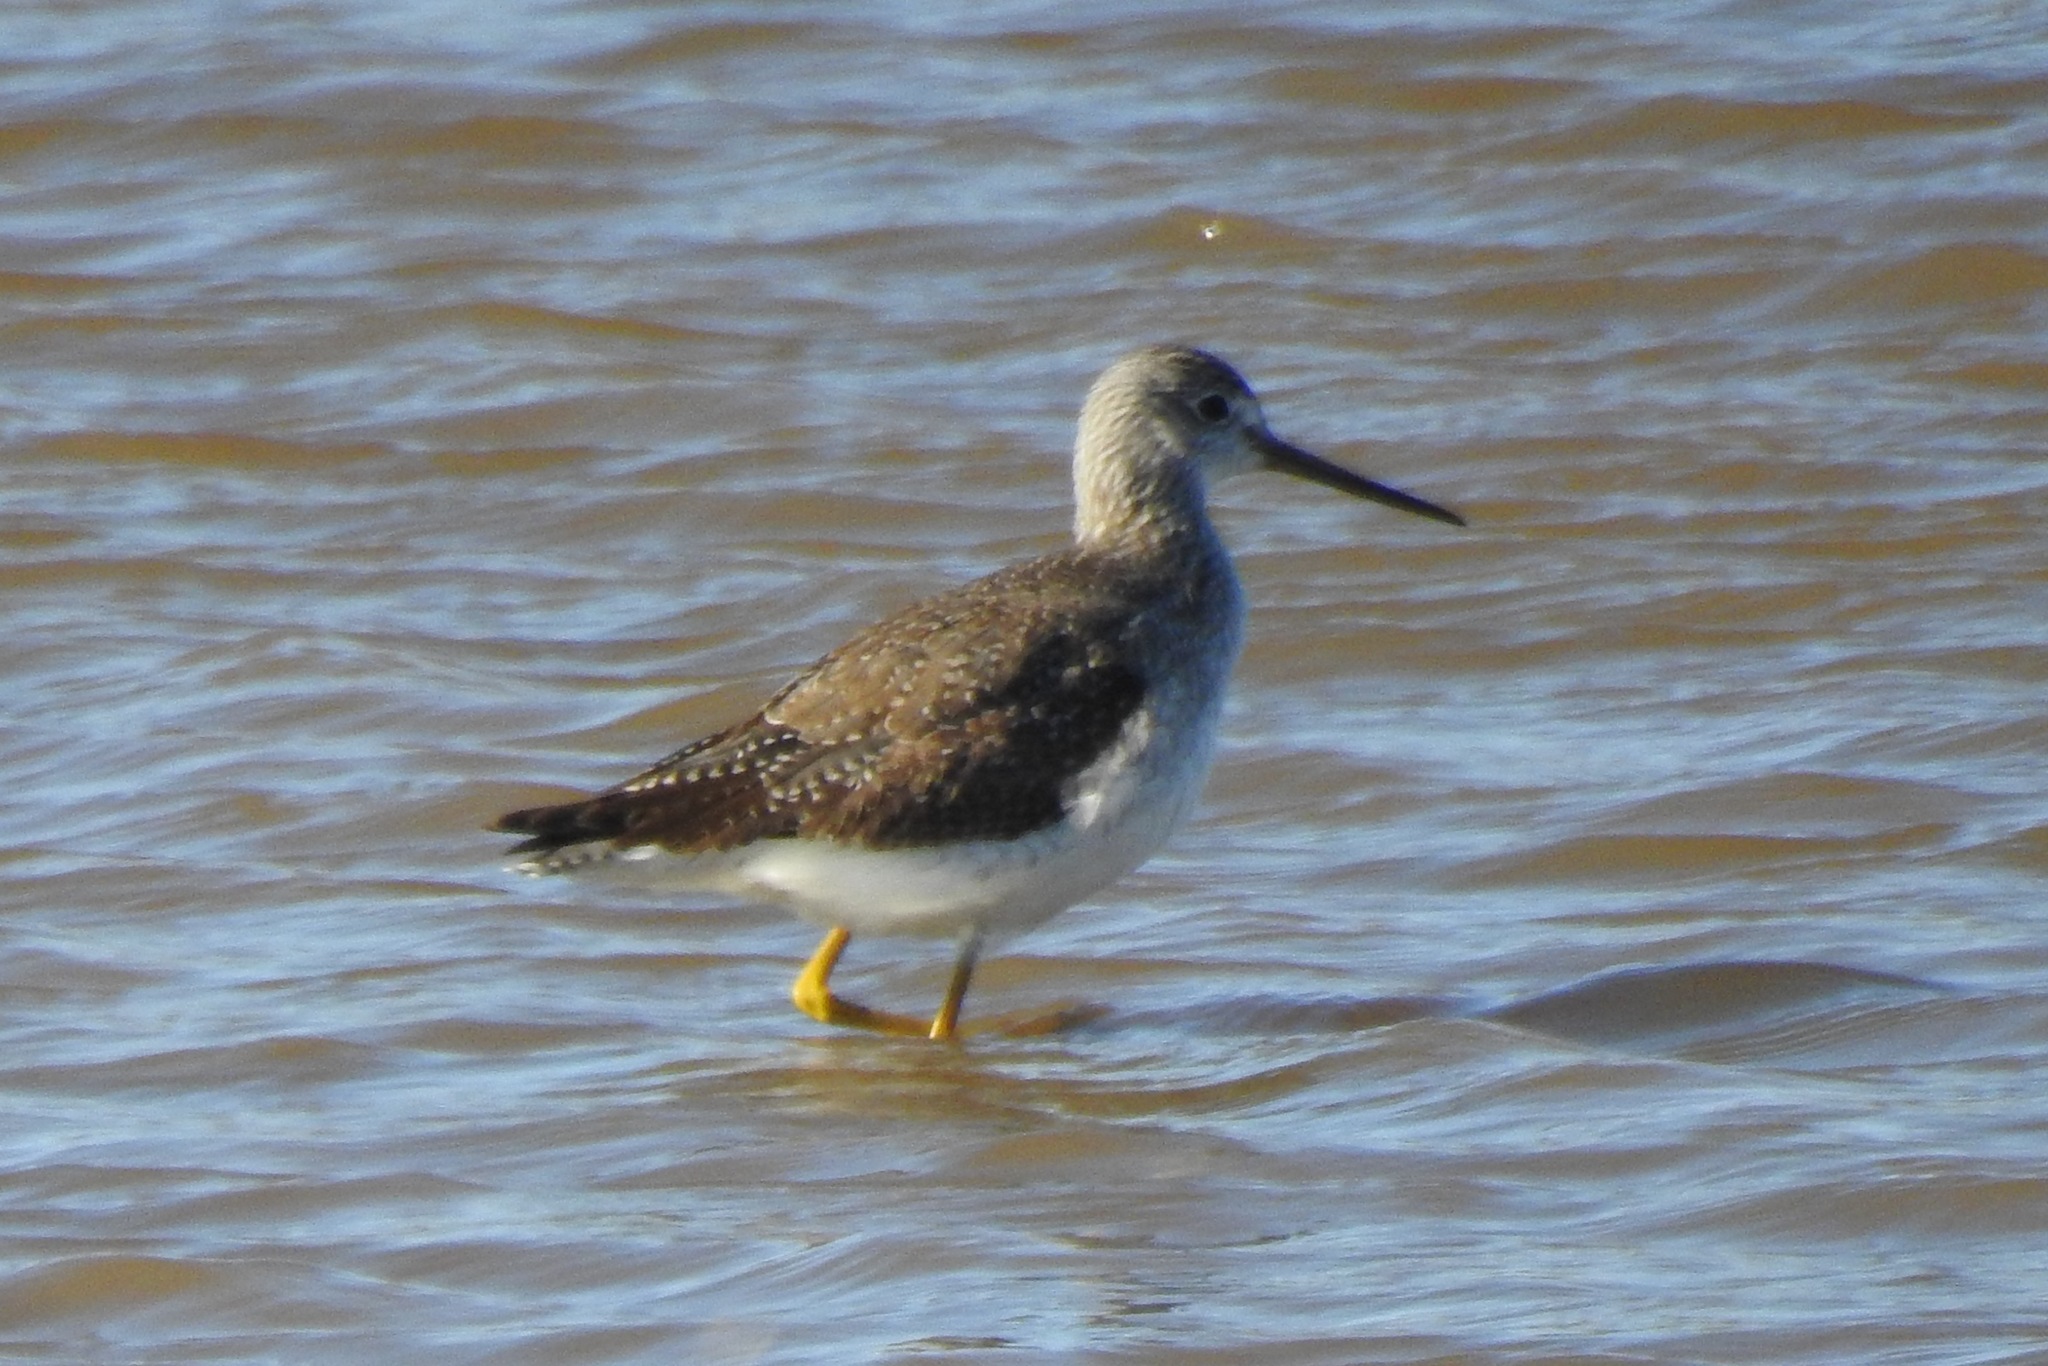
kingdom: Animalia
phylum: Chordata
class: Aves
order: Charadriiformes
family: Scolopacidae
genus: Tringa
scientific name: Tringa melanoleuca
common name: Greater yellowlegs
